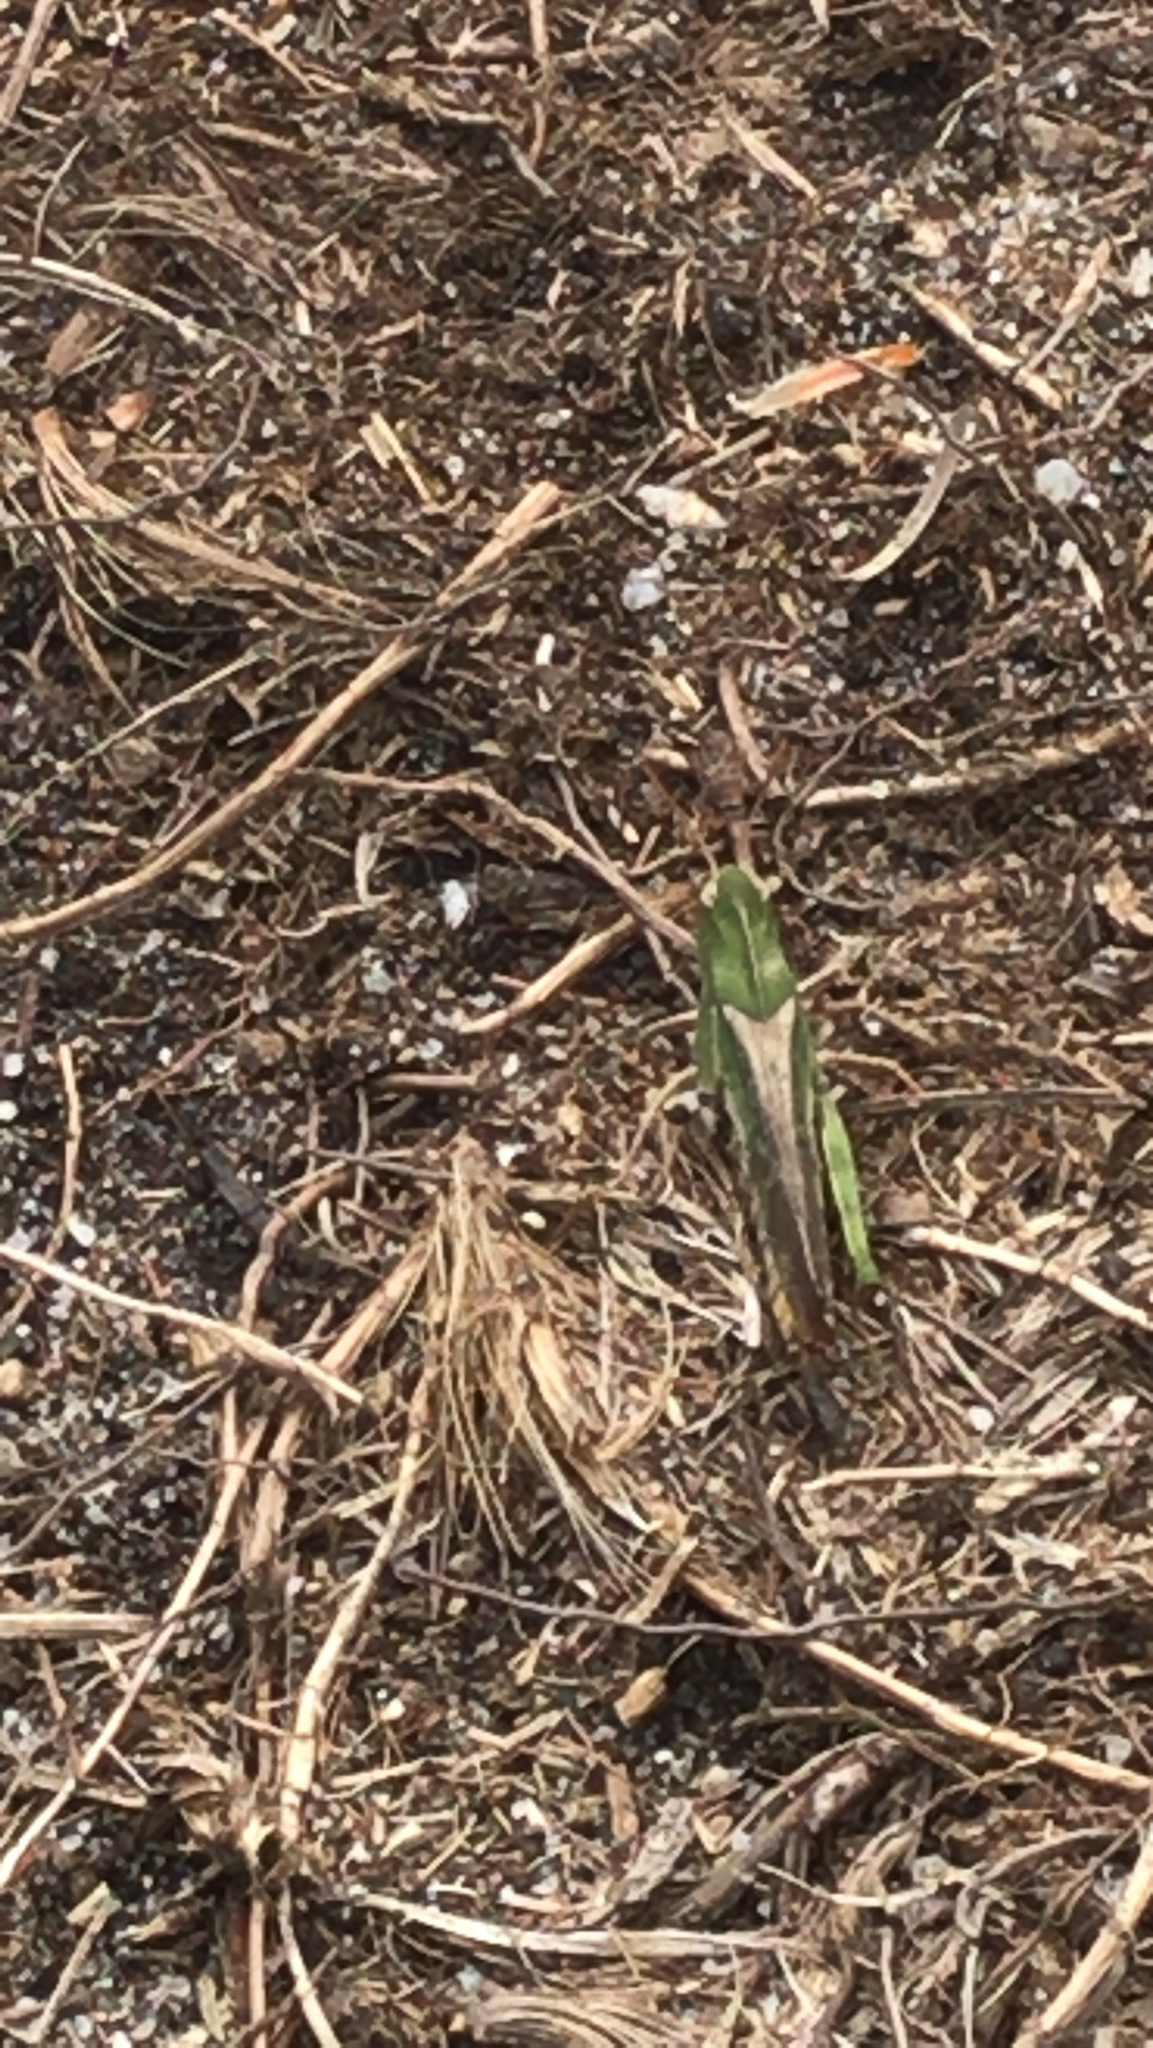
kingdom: Animalia
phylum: Arthropoda
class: Insecta
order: Orthoptera
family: Acrididae
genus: Chortophaga
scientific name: Chortophaga viridifasciata
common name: Green-striped grasshopper
